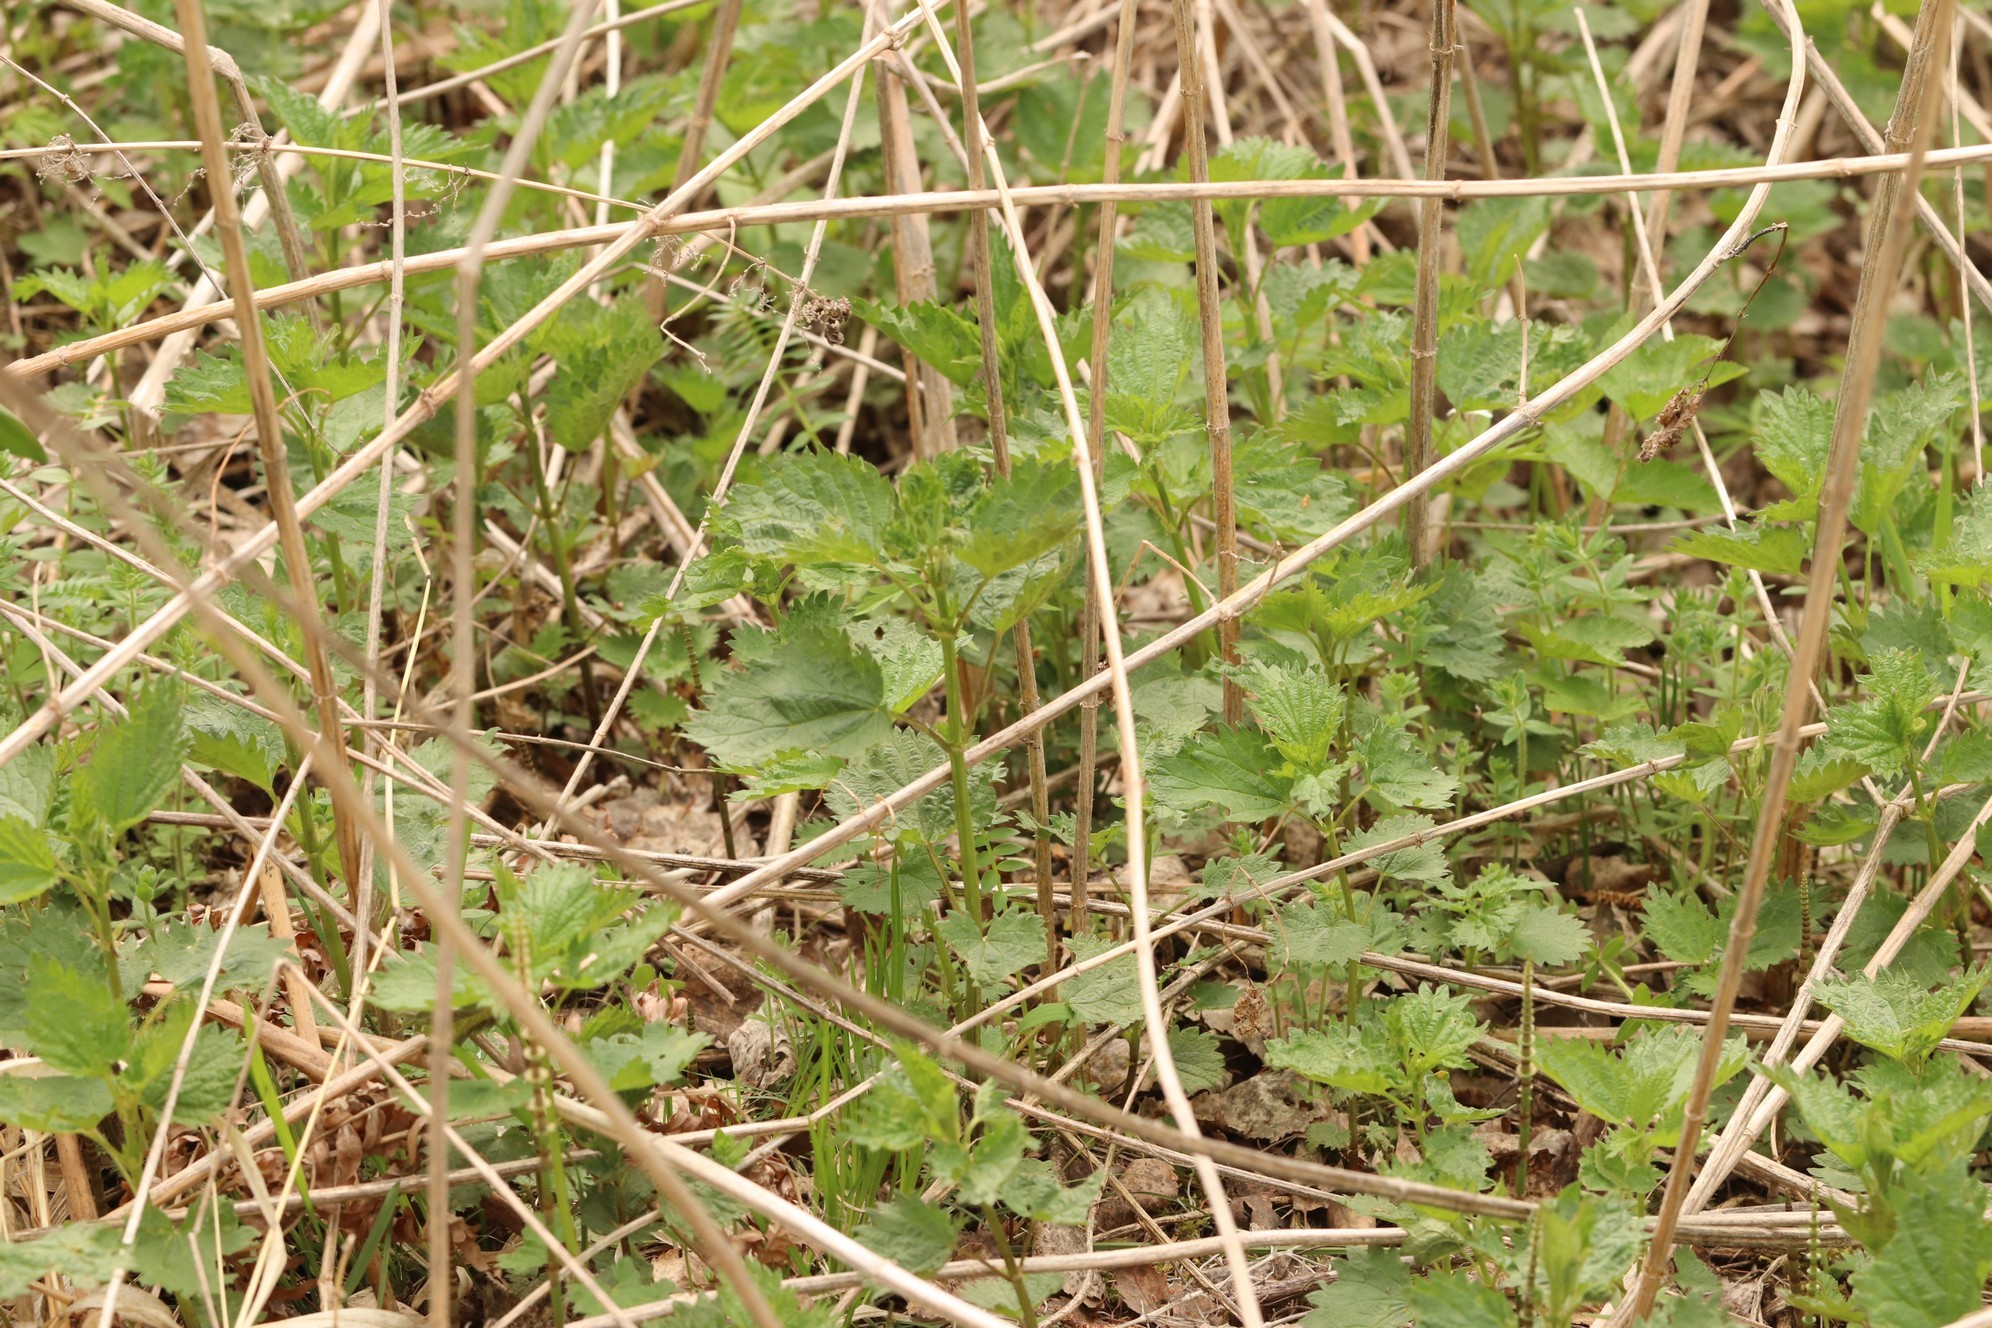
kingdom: Plantae
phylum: Tracheophyta
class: Magnoliopsida
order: Rosales
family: Urticaceae
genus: Urtica
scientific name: Urtica dioica
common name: Common nettle
